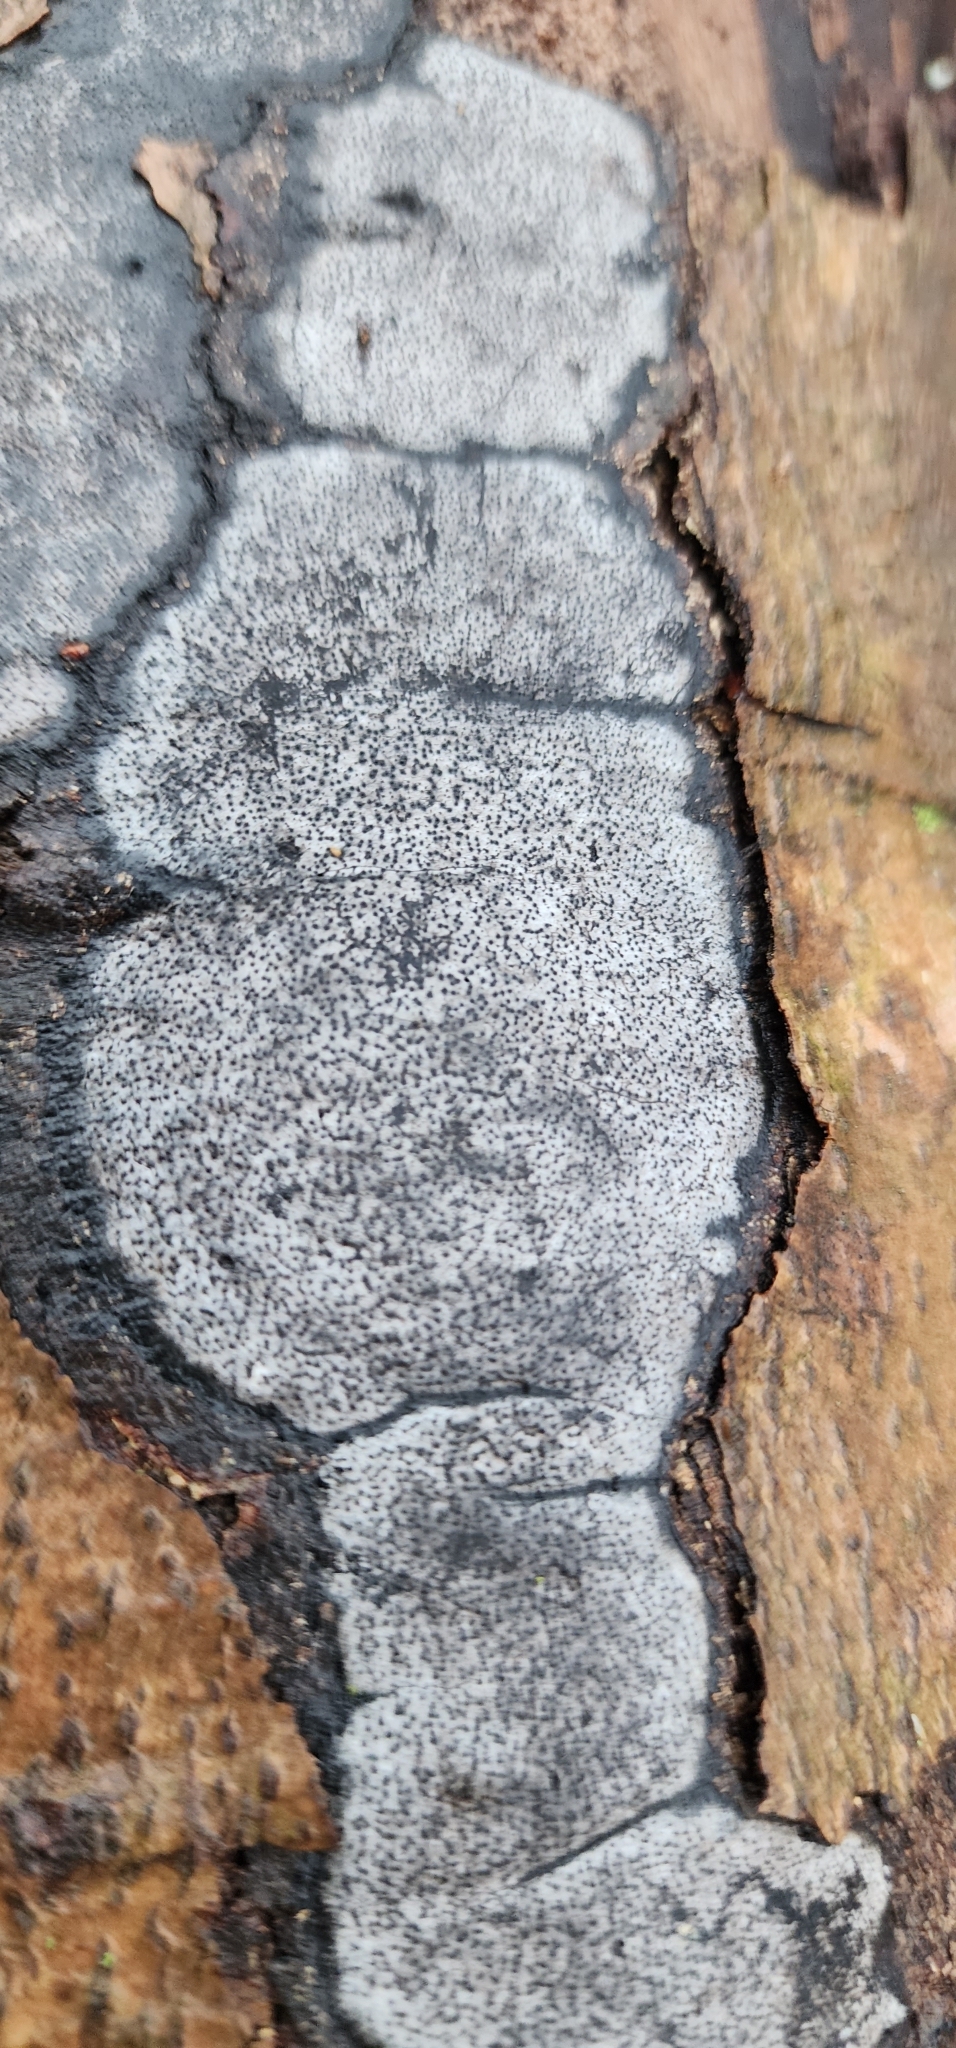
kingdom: Fungi
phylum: Ascomycota
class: Sordariomycetes
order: Xylariales
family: Graphostromataceae
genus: Biscogniauxia
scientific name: Biscogniauxia atropunctata
